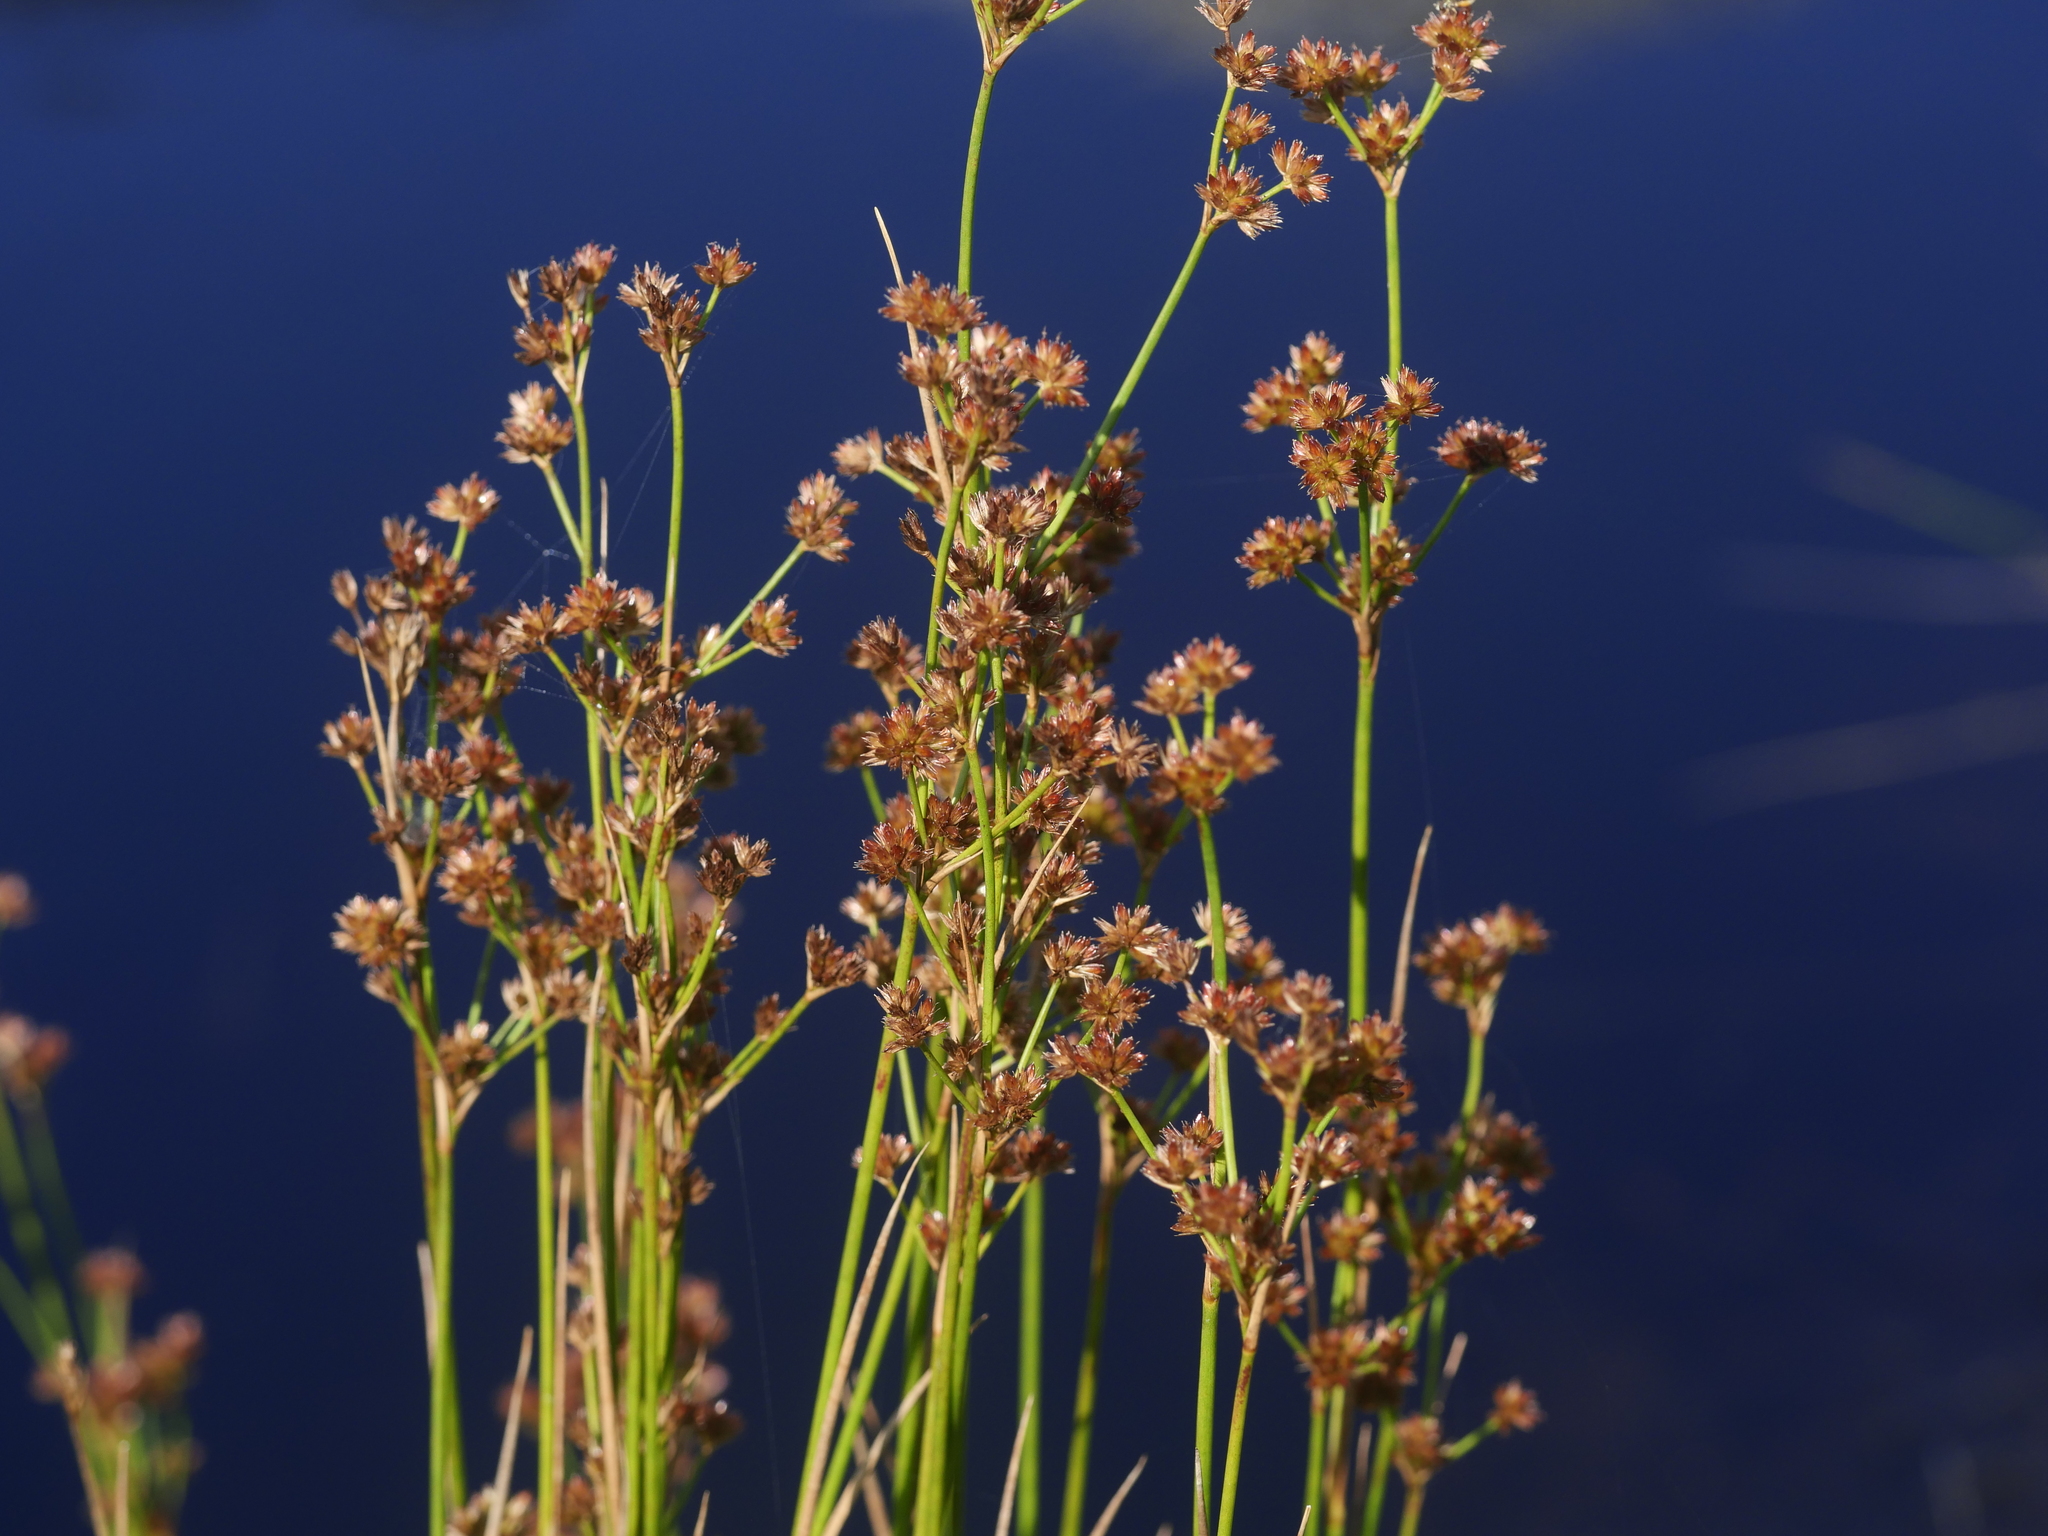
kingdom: Plantae
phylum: Tracheophyta
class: Liliopsida
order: Poales
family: Juncaceae
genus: Juncus
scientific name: Juncus canadensis
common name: Canada rush
